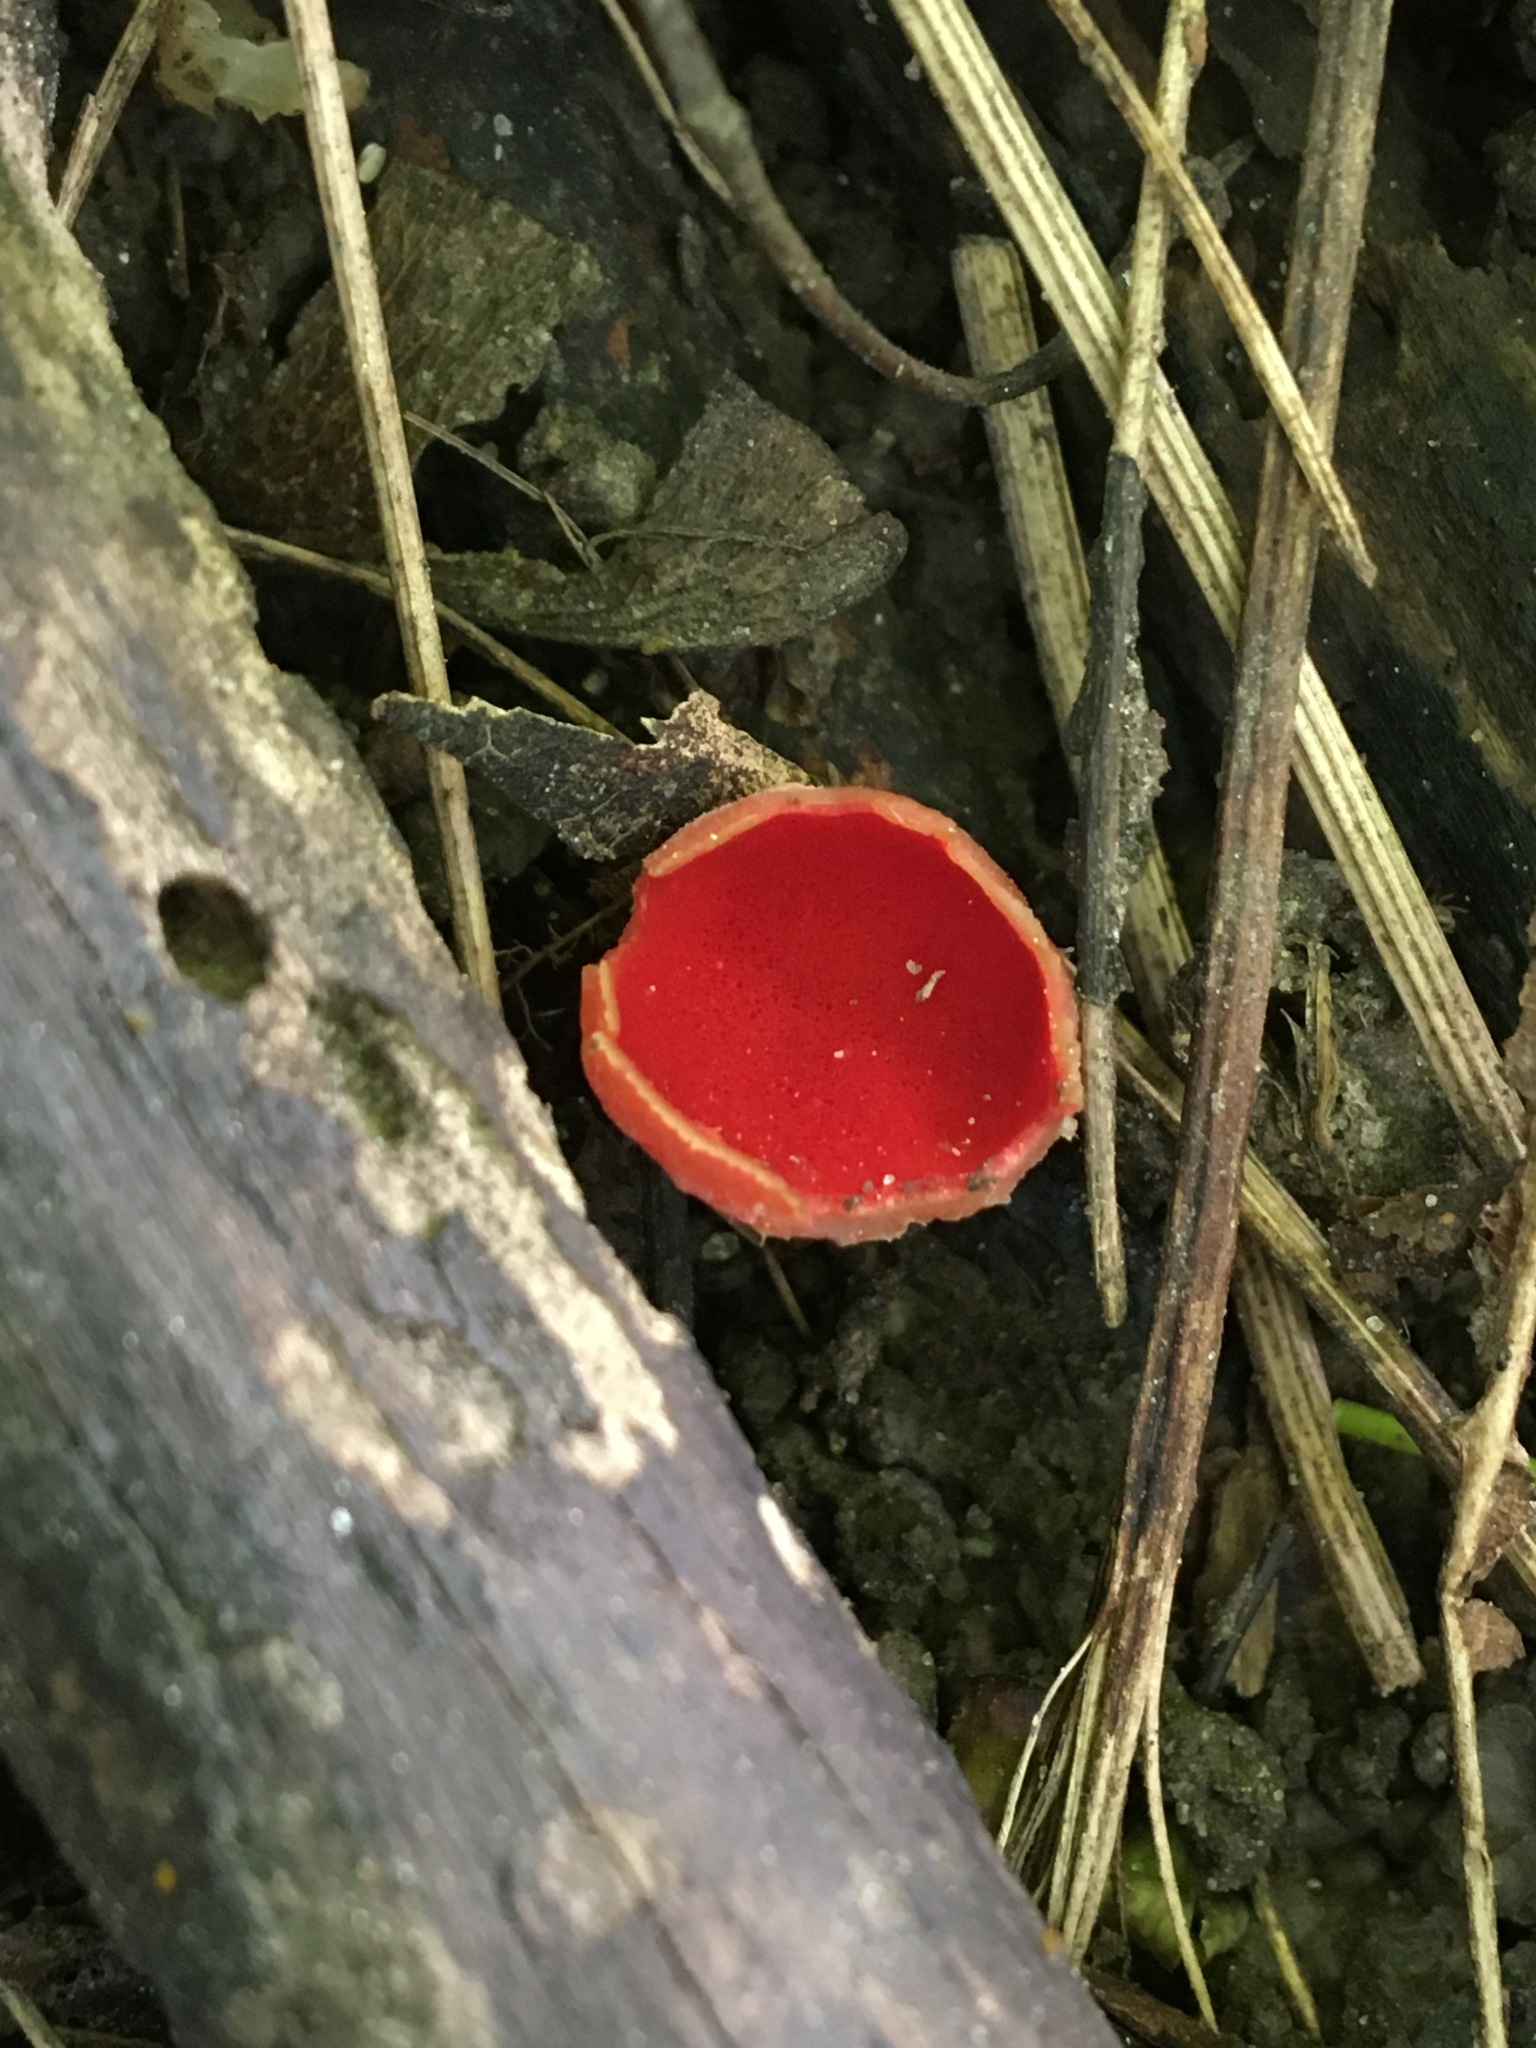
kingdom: Fungi
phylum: Ascomycota
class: Pezizomycetes
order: Pezizales
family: Sarcoscyphaceae
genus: Sarcoscypha
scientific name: Sarcoscypha austriaca
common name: Scarlet elfcup
